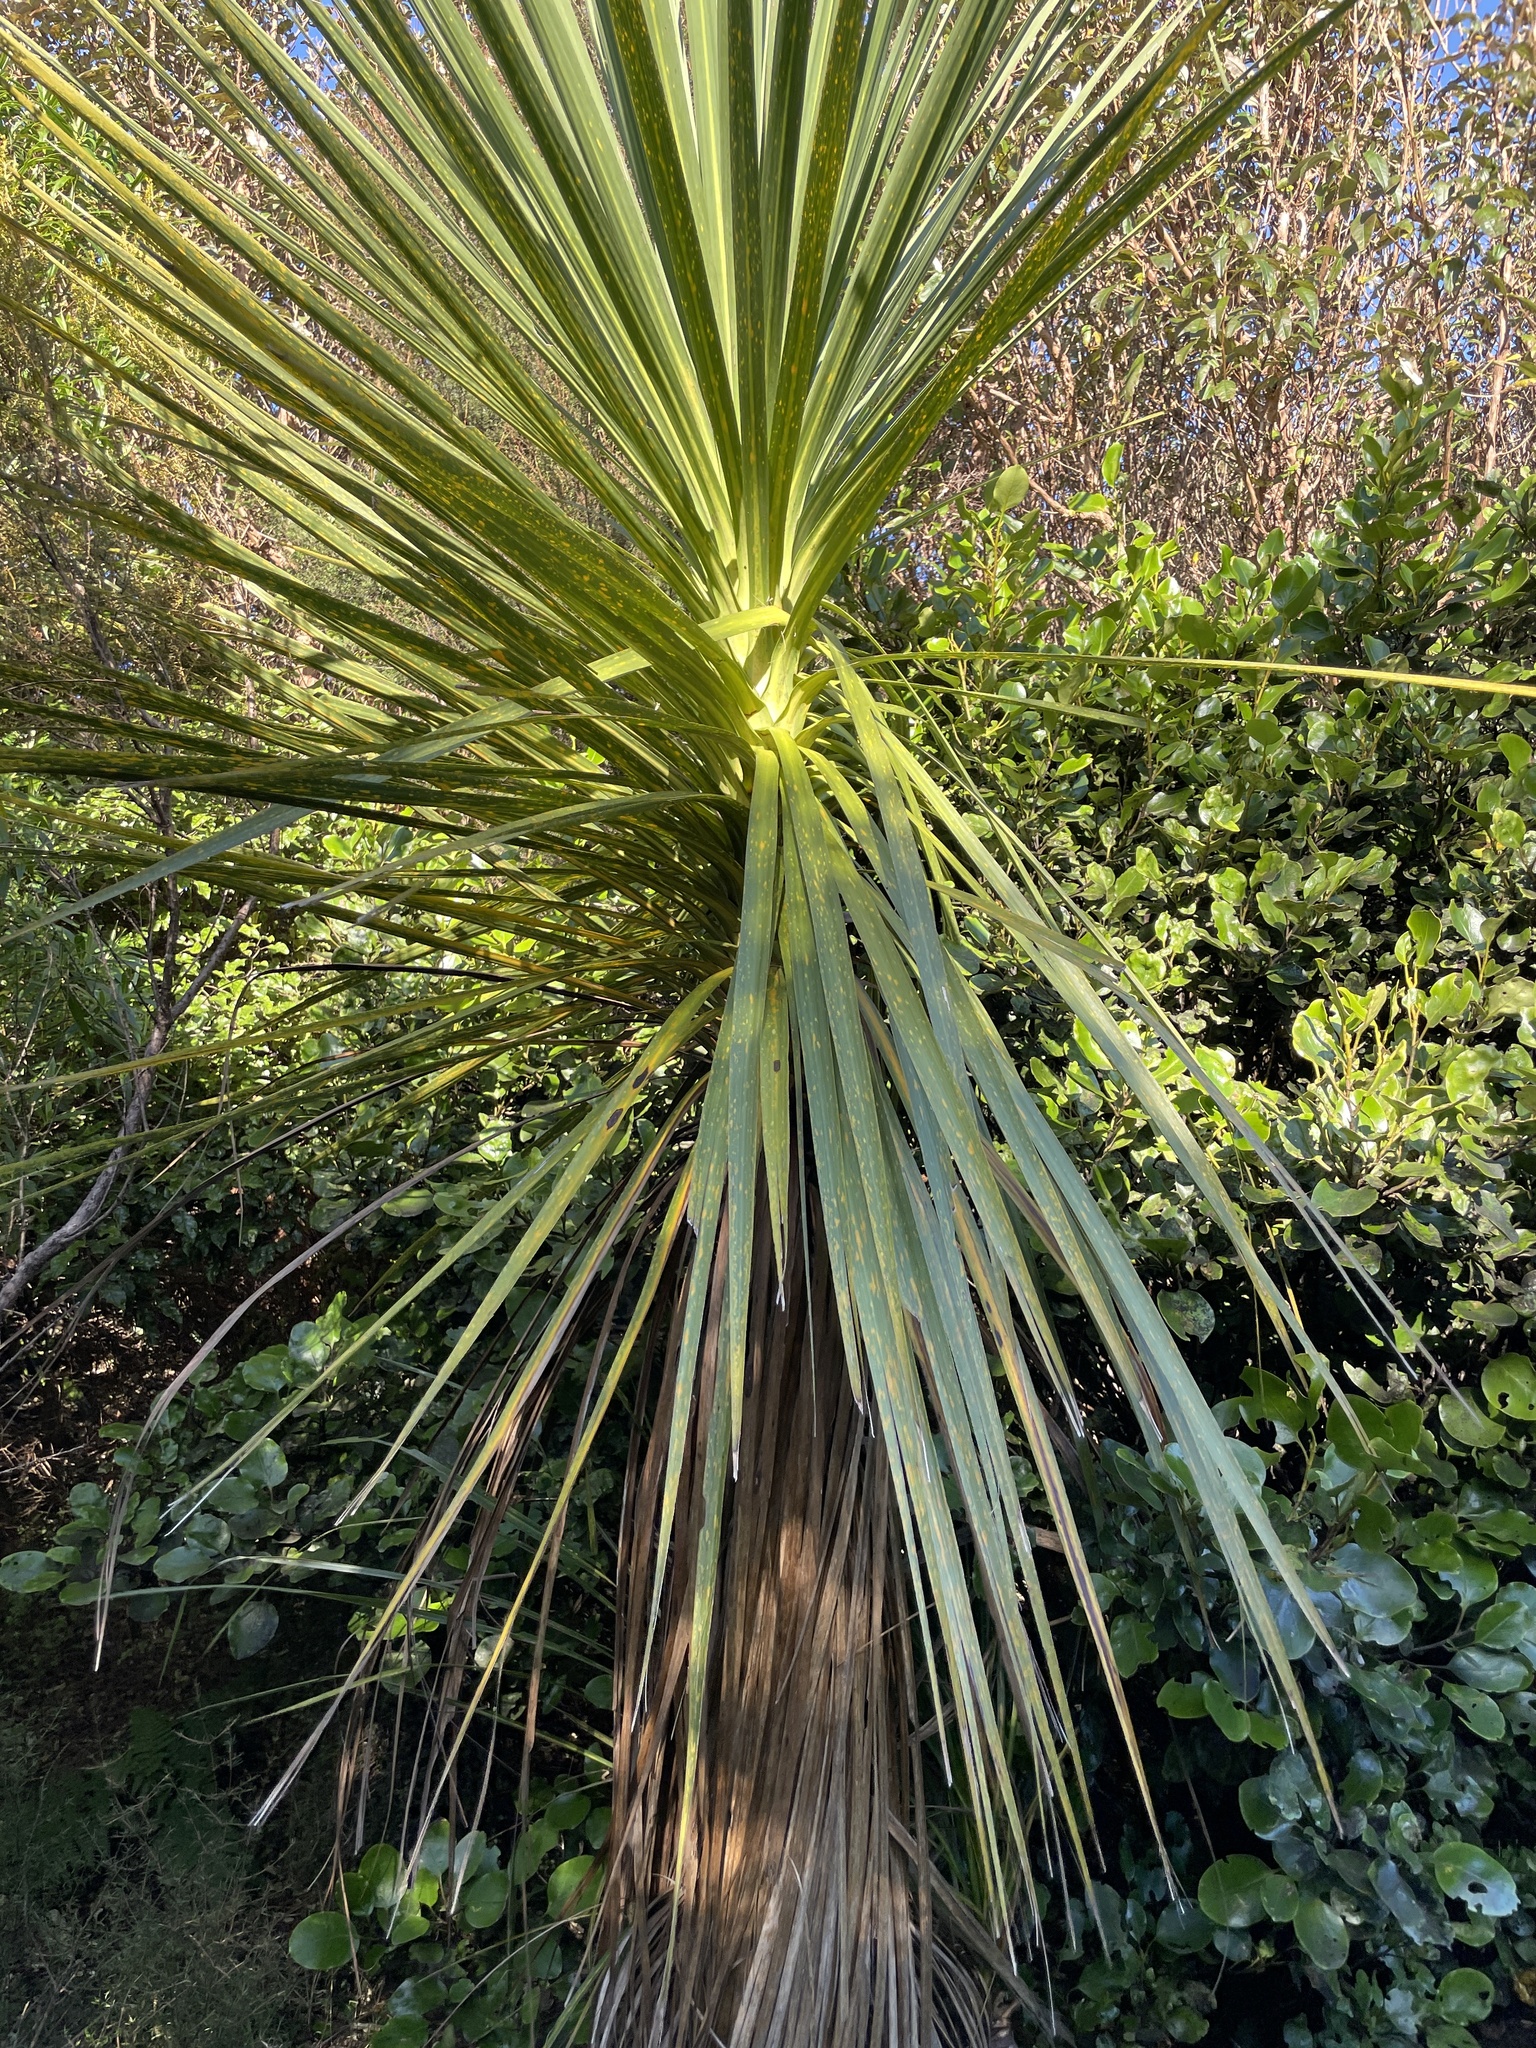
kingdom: Plantae
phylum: Tracheophyta
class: Liliopsida
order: Asparagales
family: Asparagaceae
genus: Cordyline
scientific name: Cordyline australis
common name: Cabbage-palm
